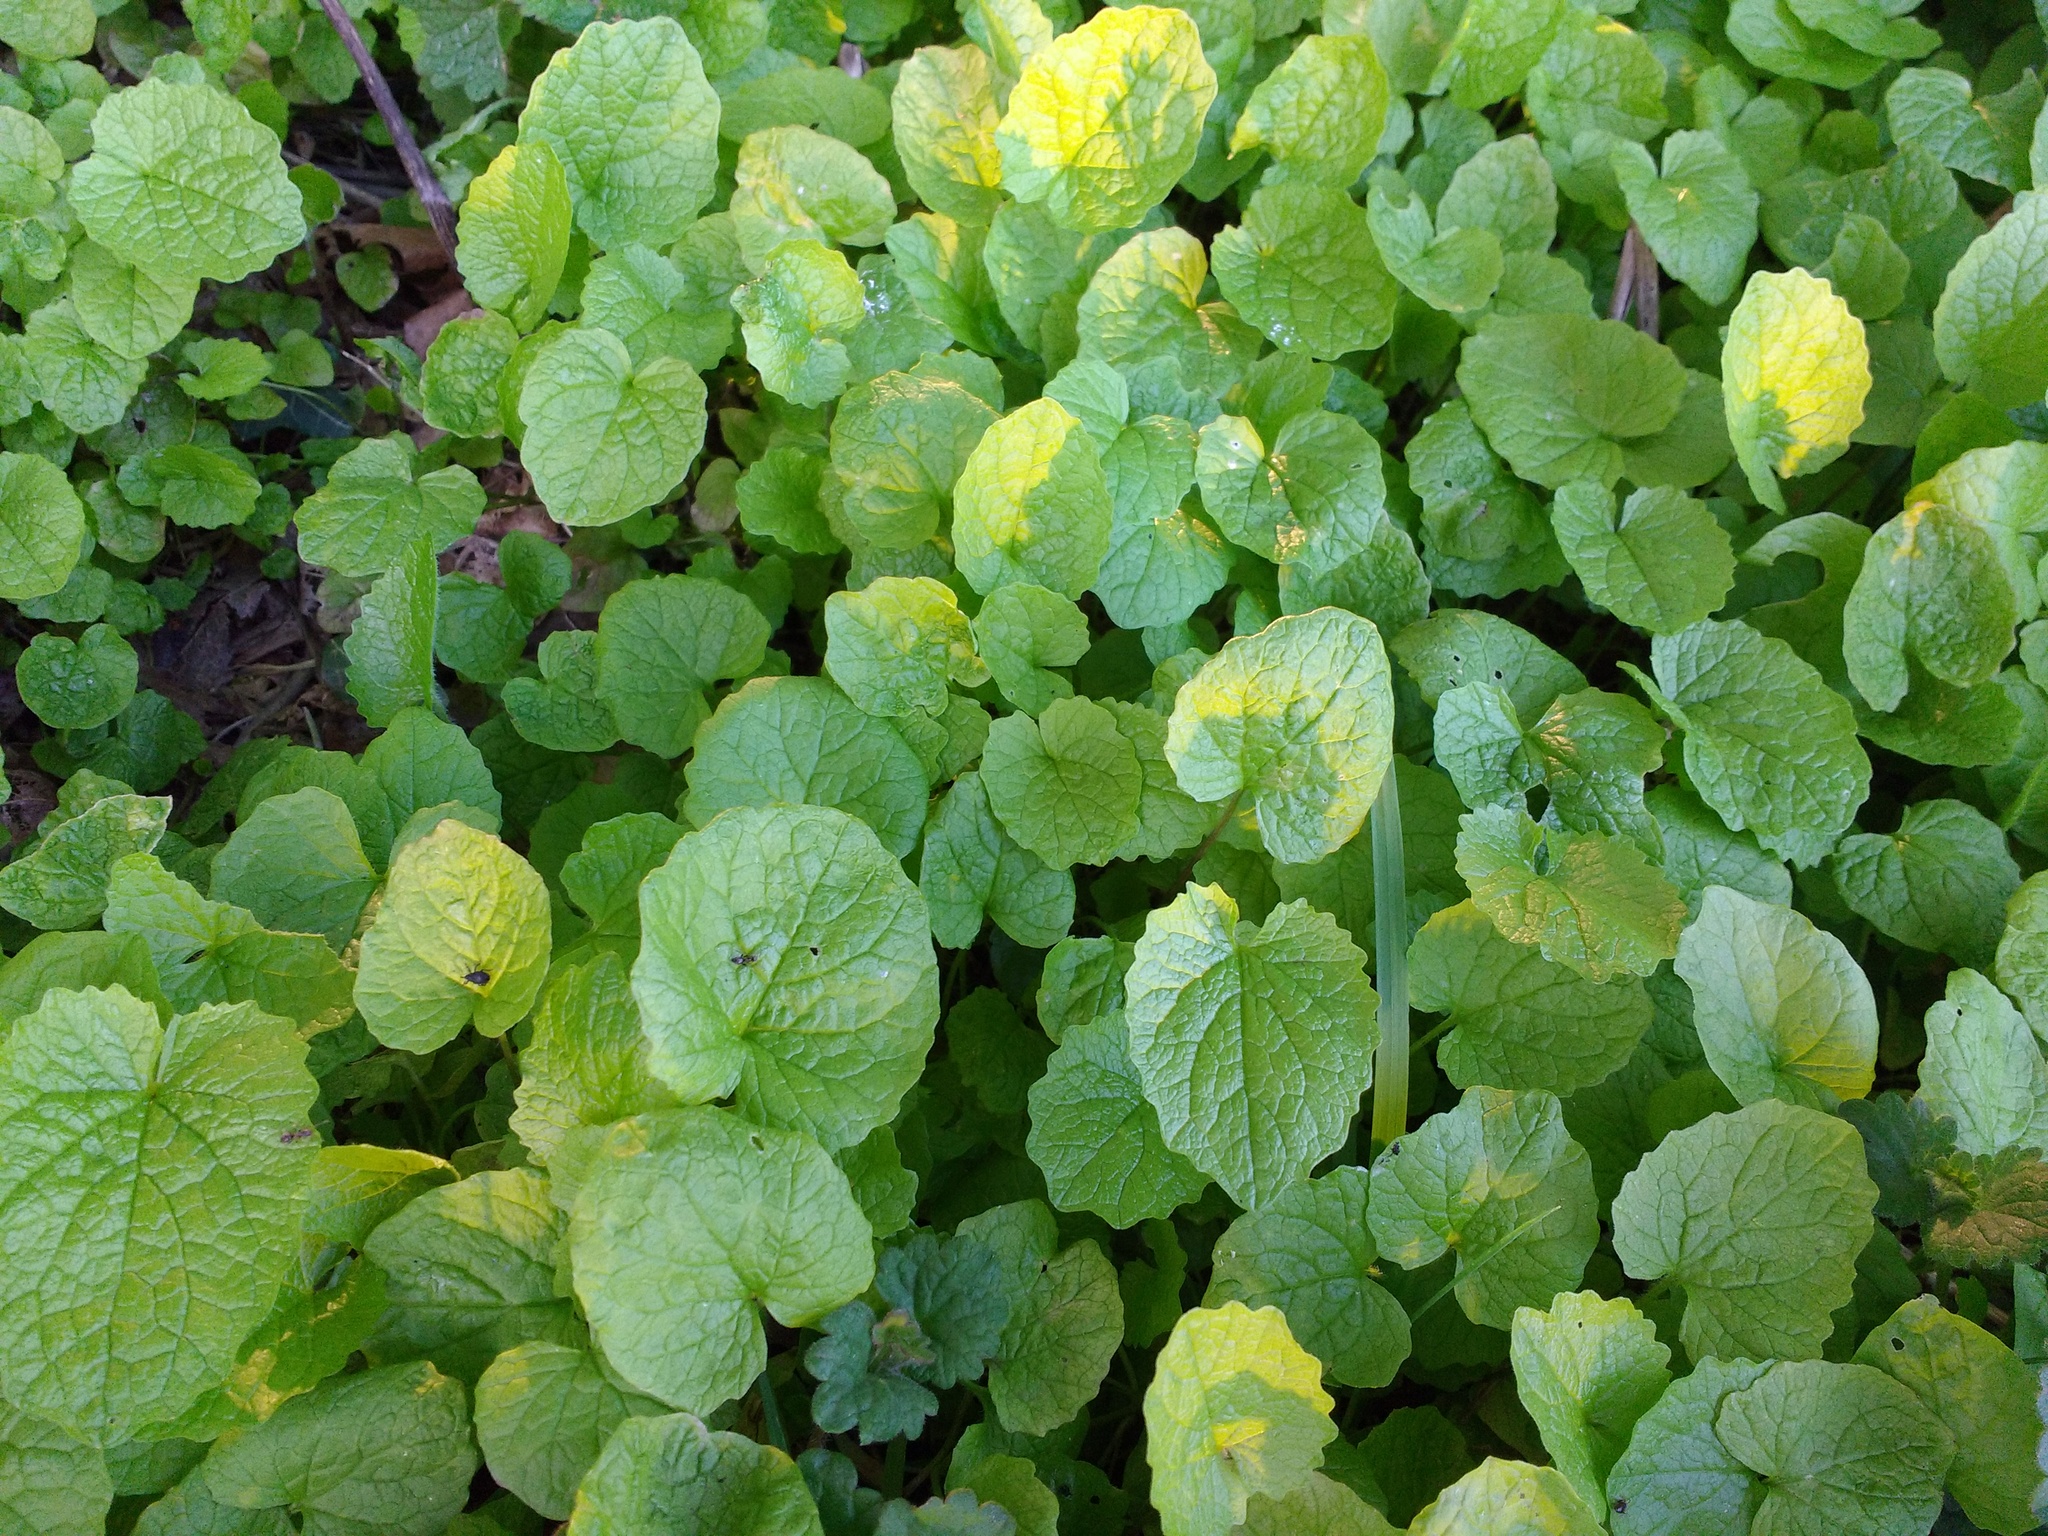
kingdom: Plantae
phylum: Tracheophyta
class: Magnoliopsida
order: Brassicales
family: Brassicaceae
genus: Alliaria
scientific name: Alliaria petiolata
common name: Garlic mustard
